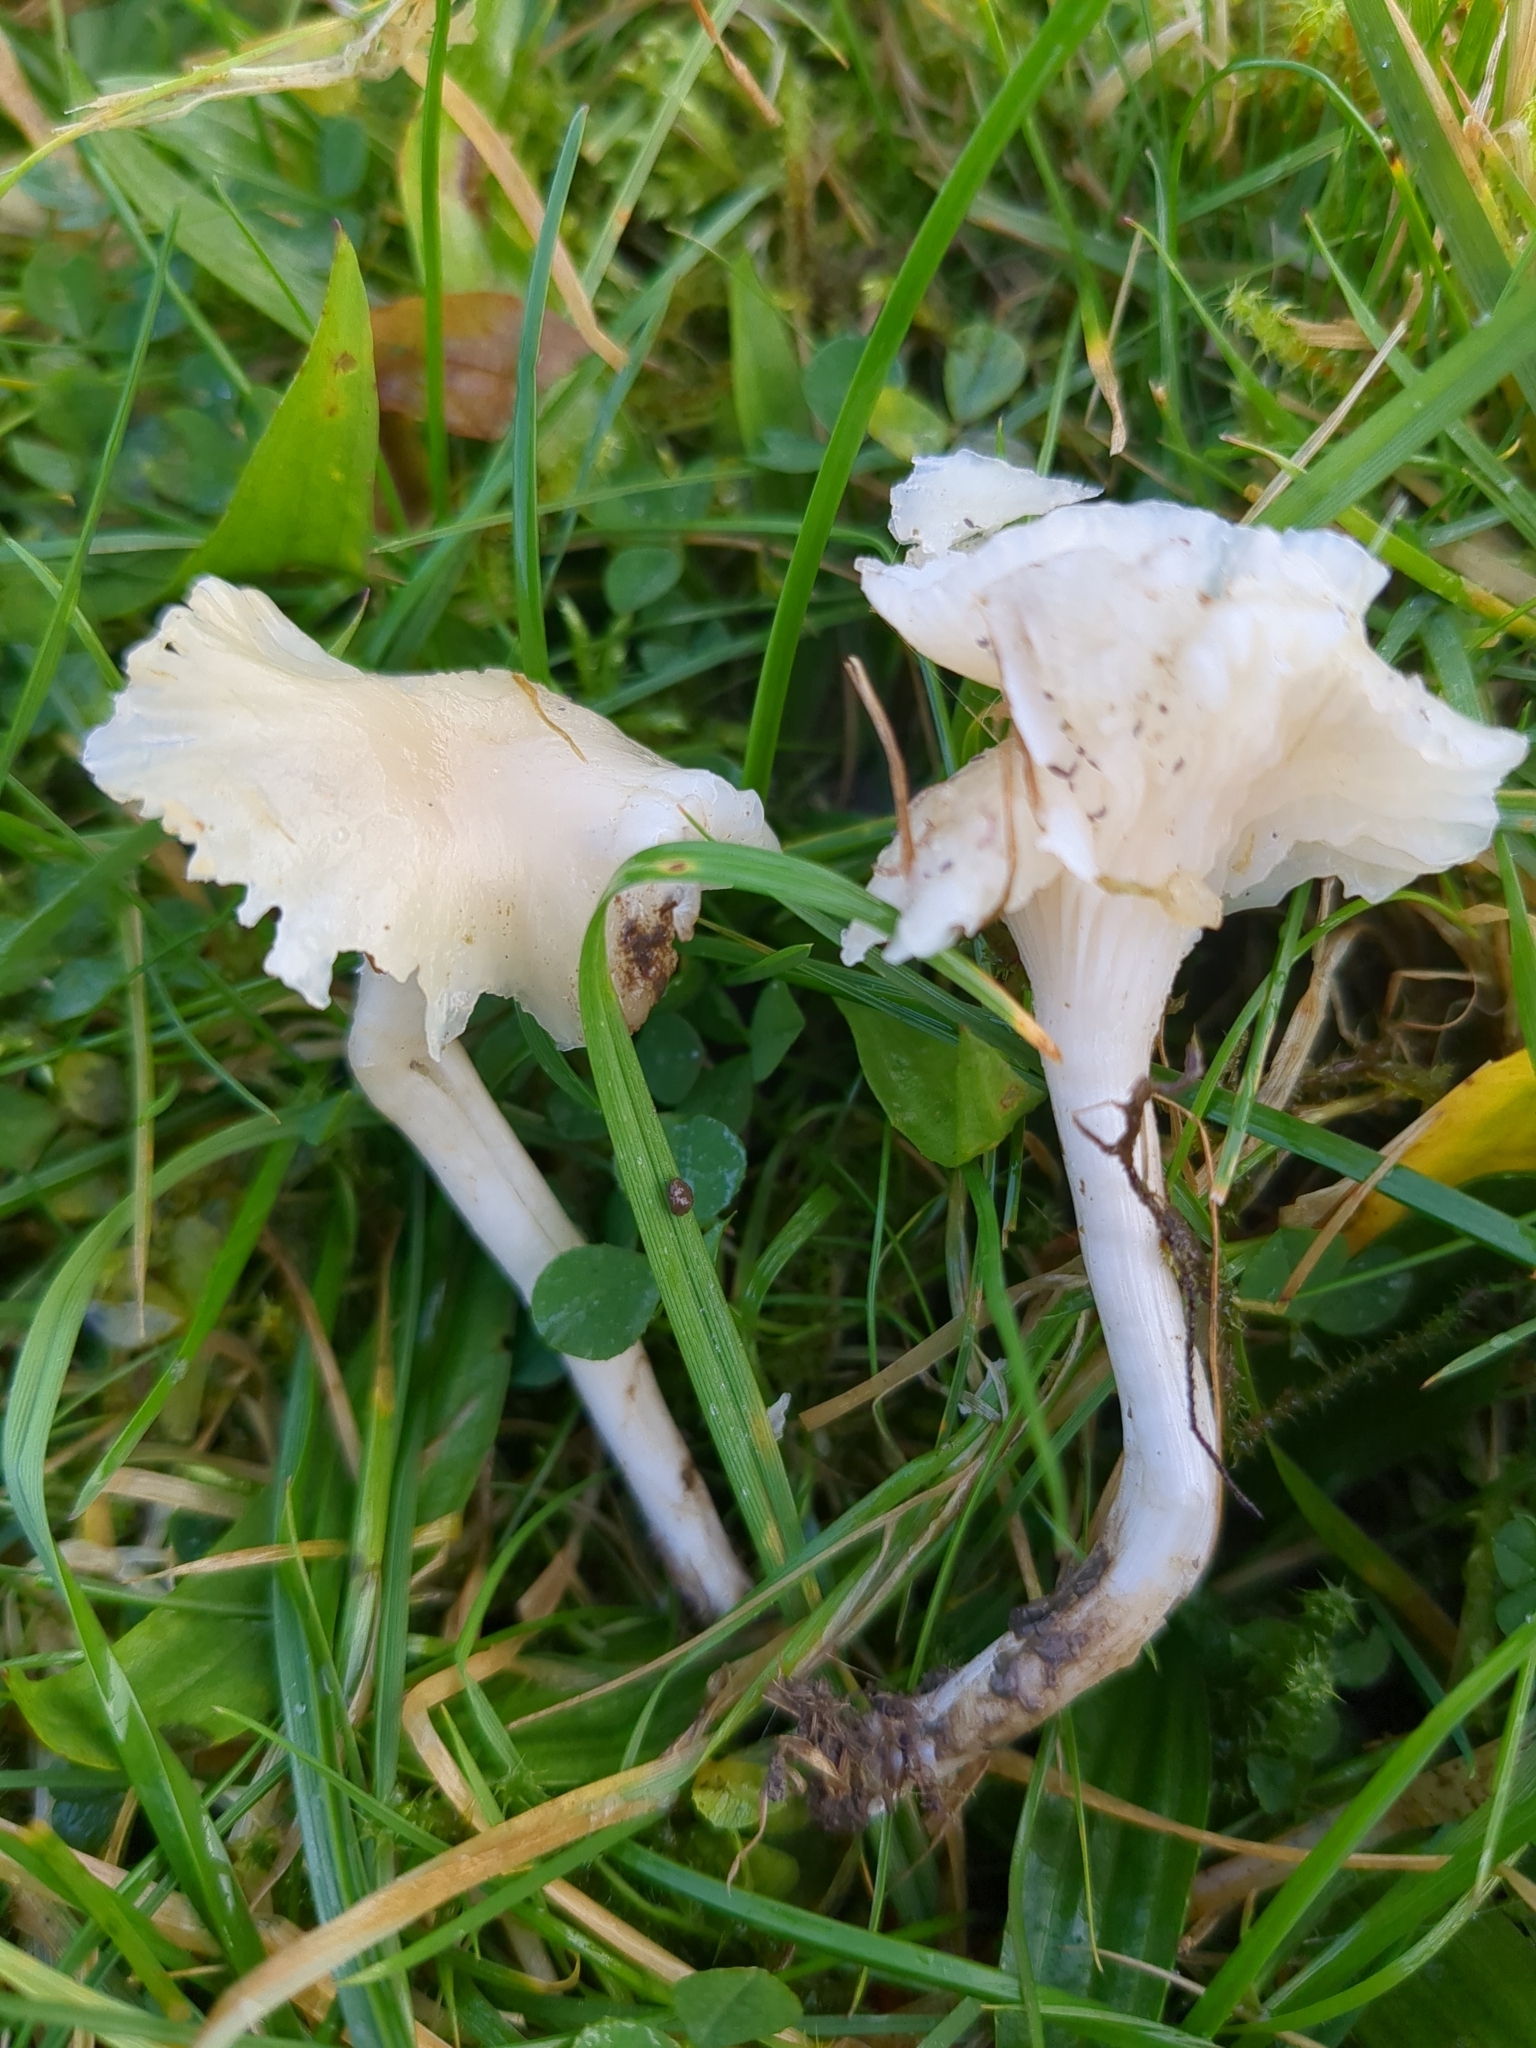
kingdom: Fungi
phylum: Basidiomycota
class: Agaricomycetes
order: Agaricales
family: Hygrophoraceae
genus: Cuphophyllus
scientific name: Cuphophyllus virgineus
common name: Snowy waxcap
